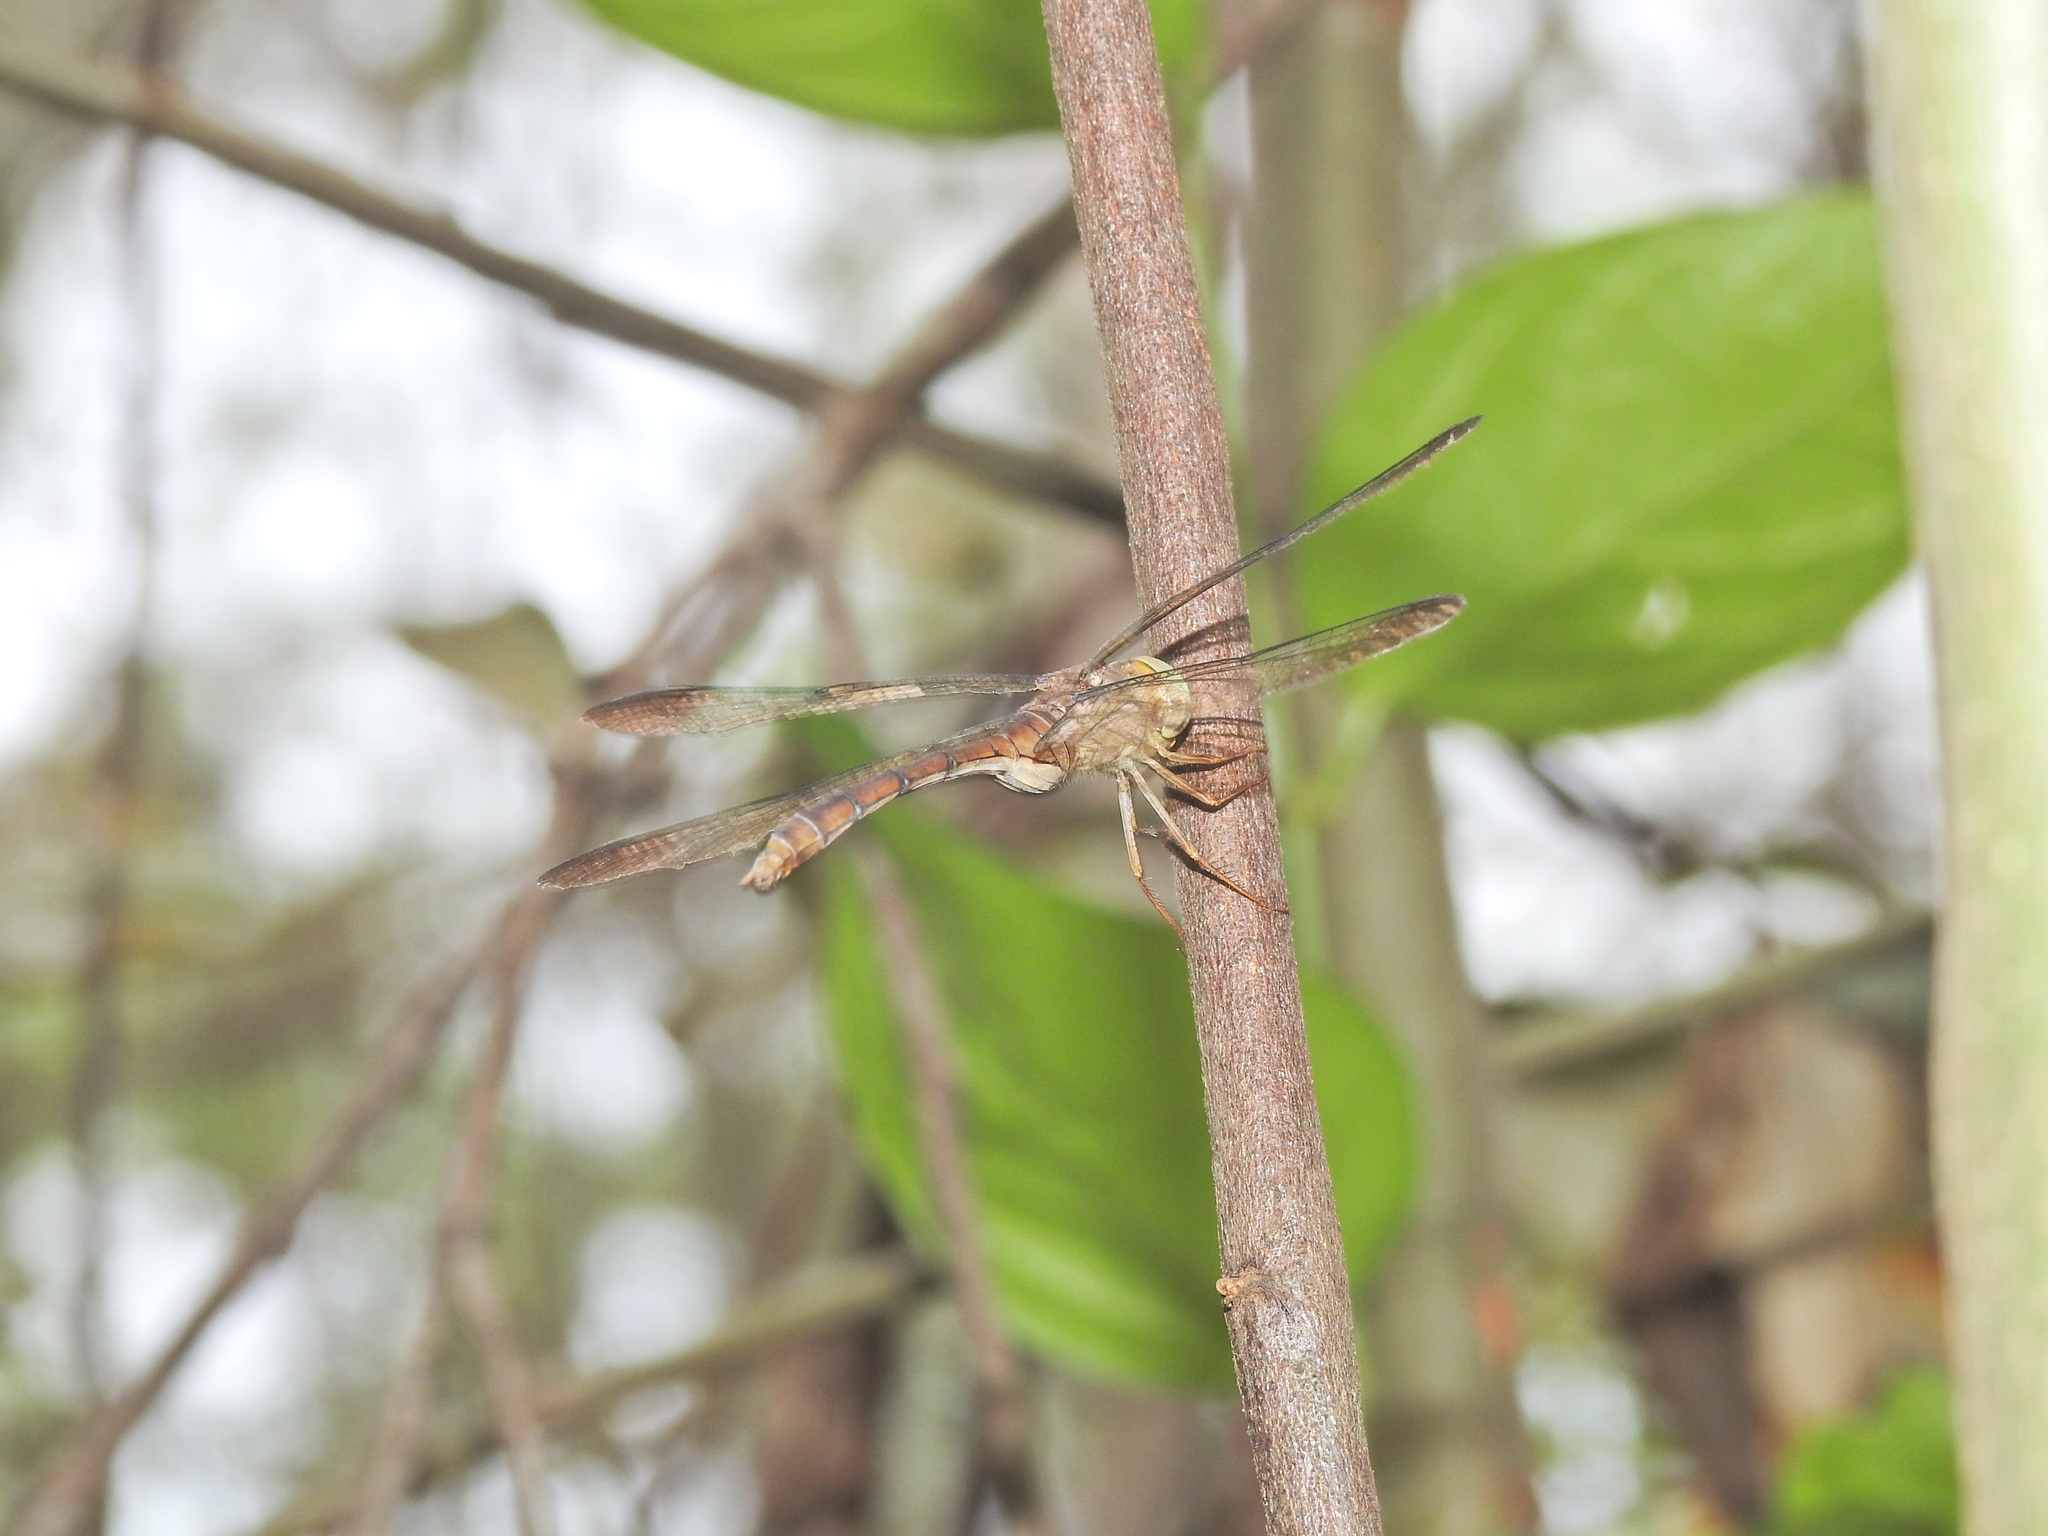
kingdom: Animalia
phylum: Arthropoda
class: Insecta
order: Odonata
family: Libellulidae
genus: Zyxomma
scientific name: Zyxomma elgneri
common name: Short-tailed duskdarter
